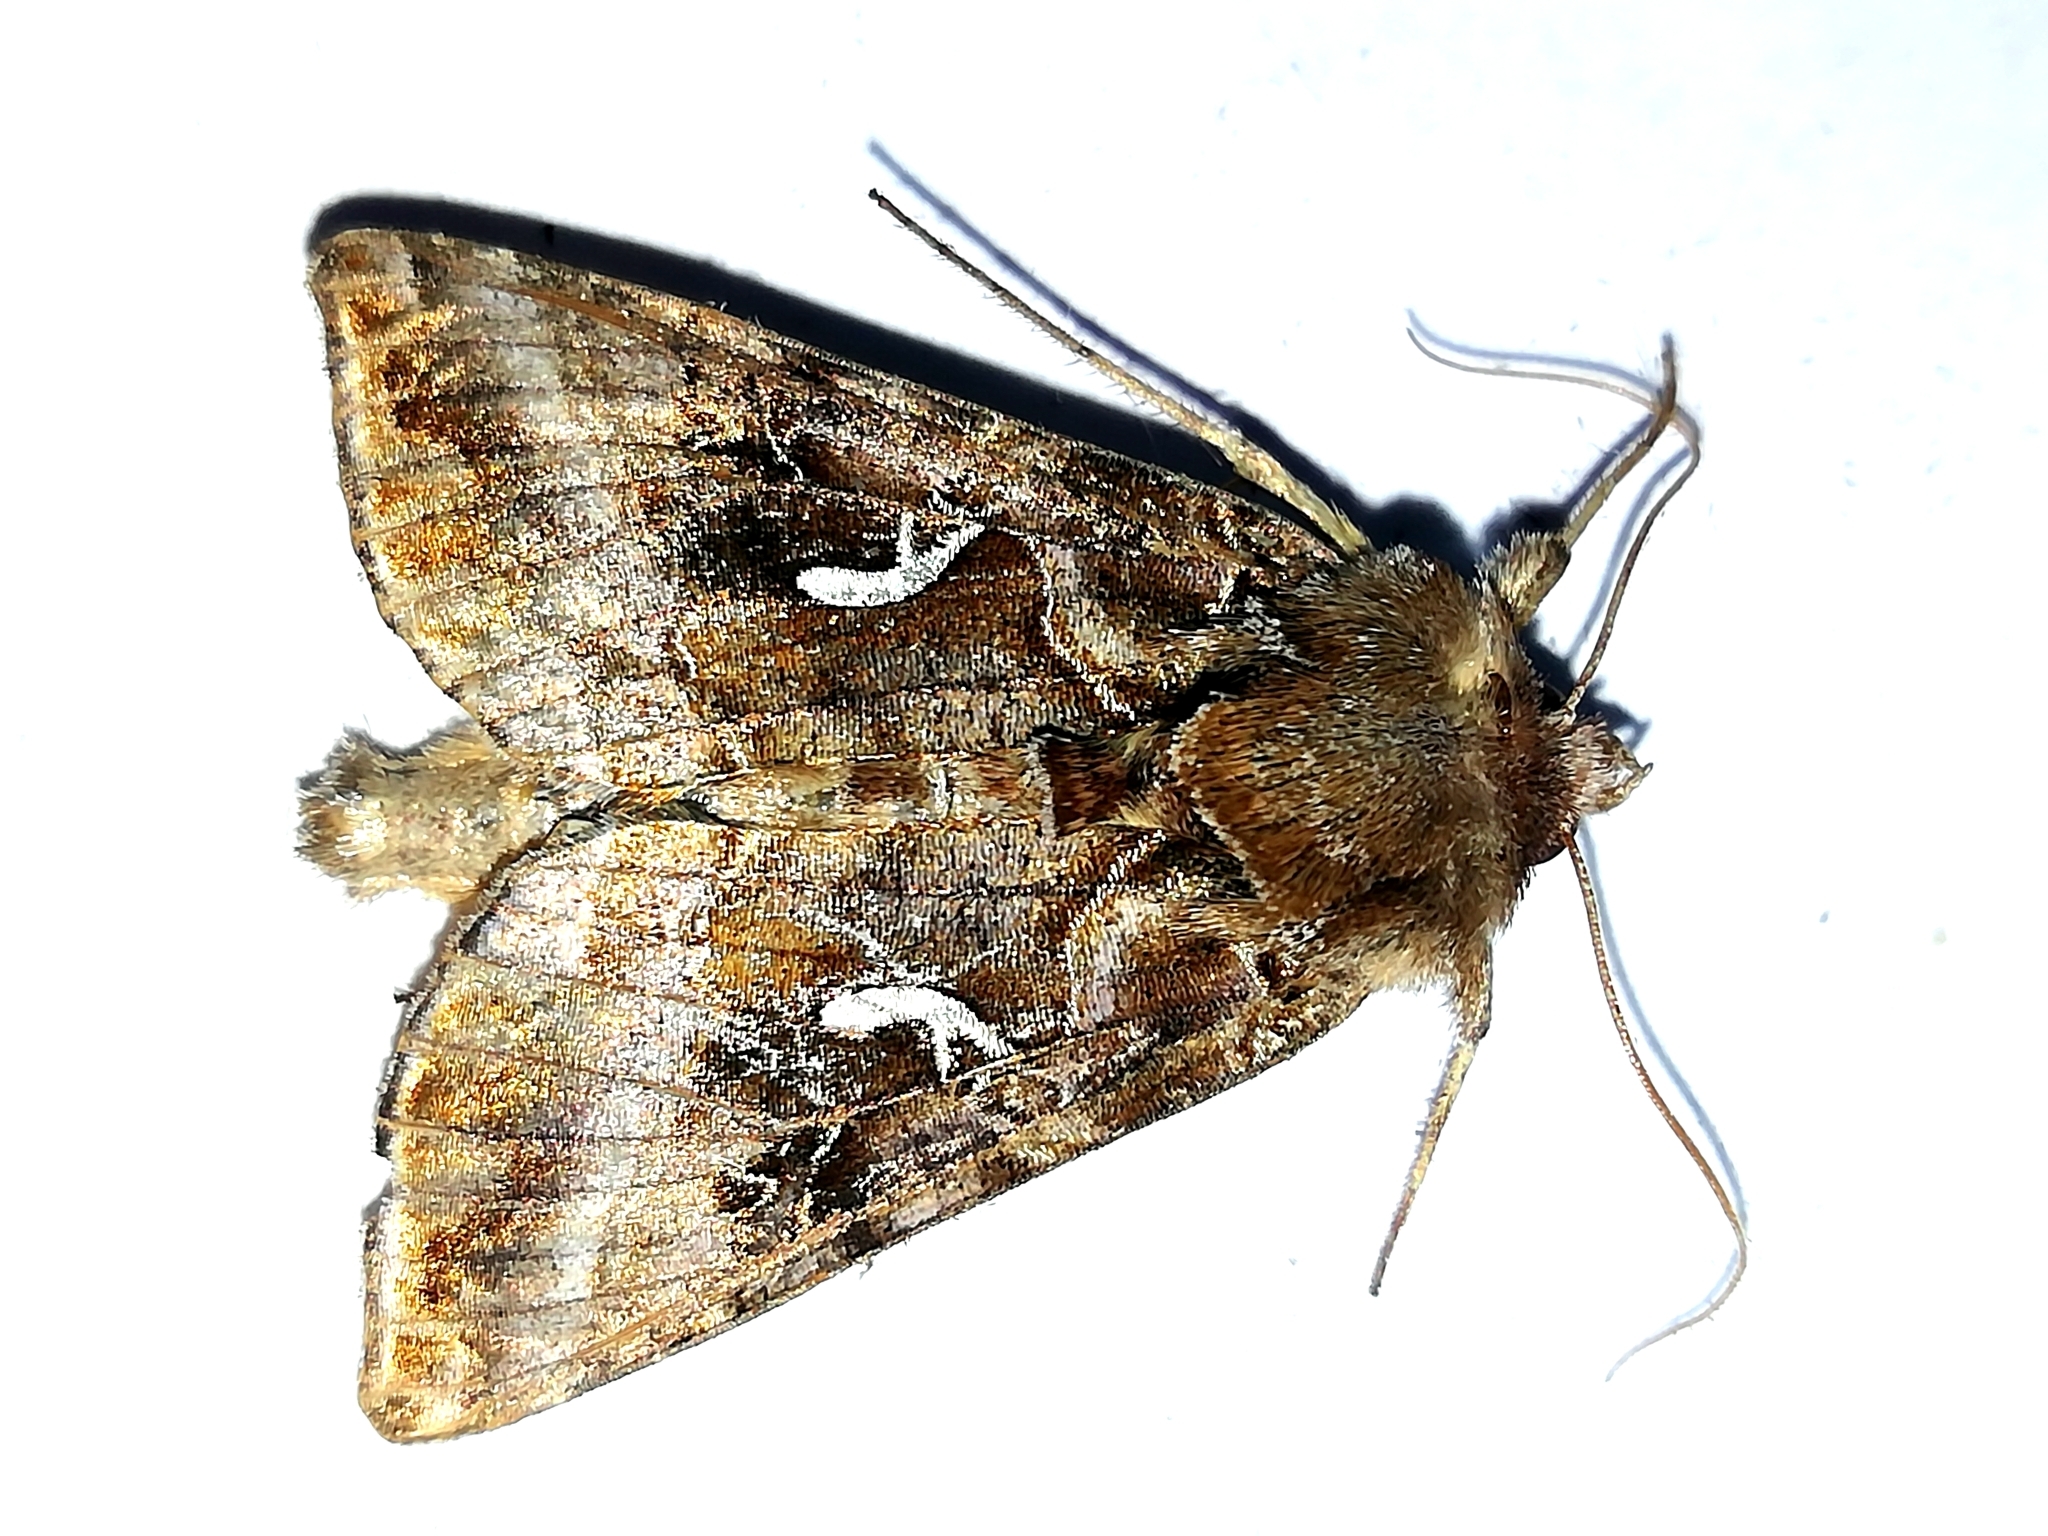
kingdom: Animalia
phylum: Arthropoda
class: Insecta
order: Lepidoptera
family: Noctuidae
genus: Autographa
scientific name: Autographa mandarina
